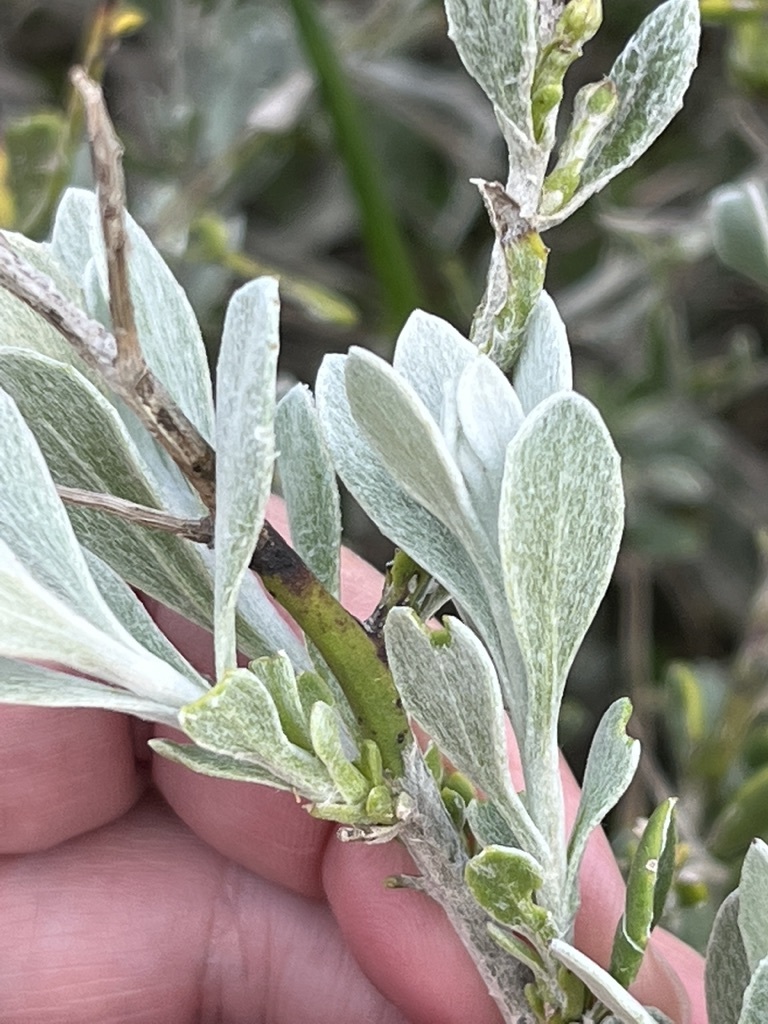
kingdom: Plantae
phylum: Tracheophyta
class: Magnoliopsida
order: Asterales
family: Asteraceae
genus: Osteospermum
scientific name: Osteospermum incanum
